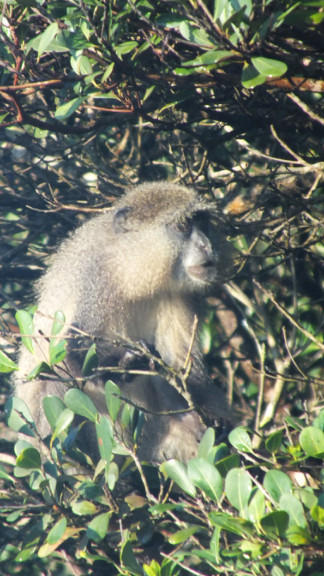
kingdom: Animalia
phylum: Chordata
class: Mammalia
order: Primates
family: Cercopithecidae
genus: Cercopithecus
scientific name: Cercopithecus mitis
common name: Blue monkey
